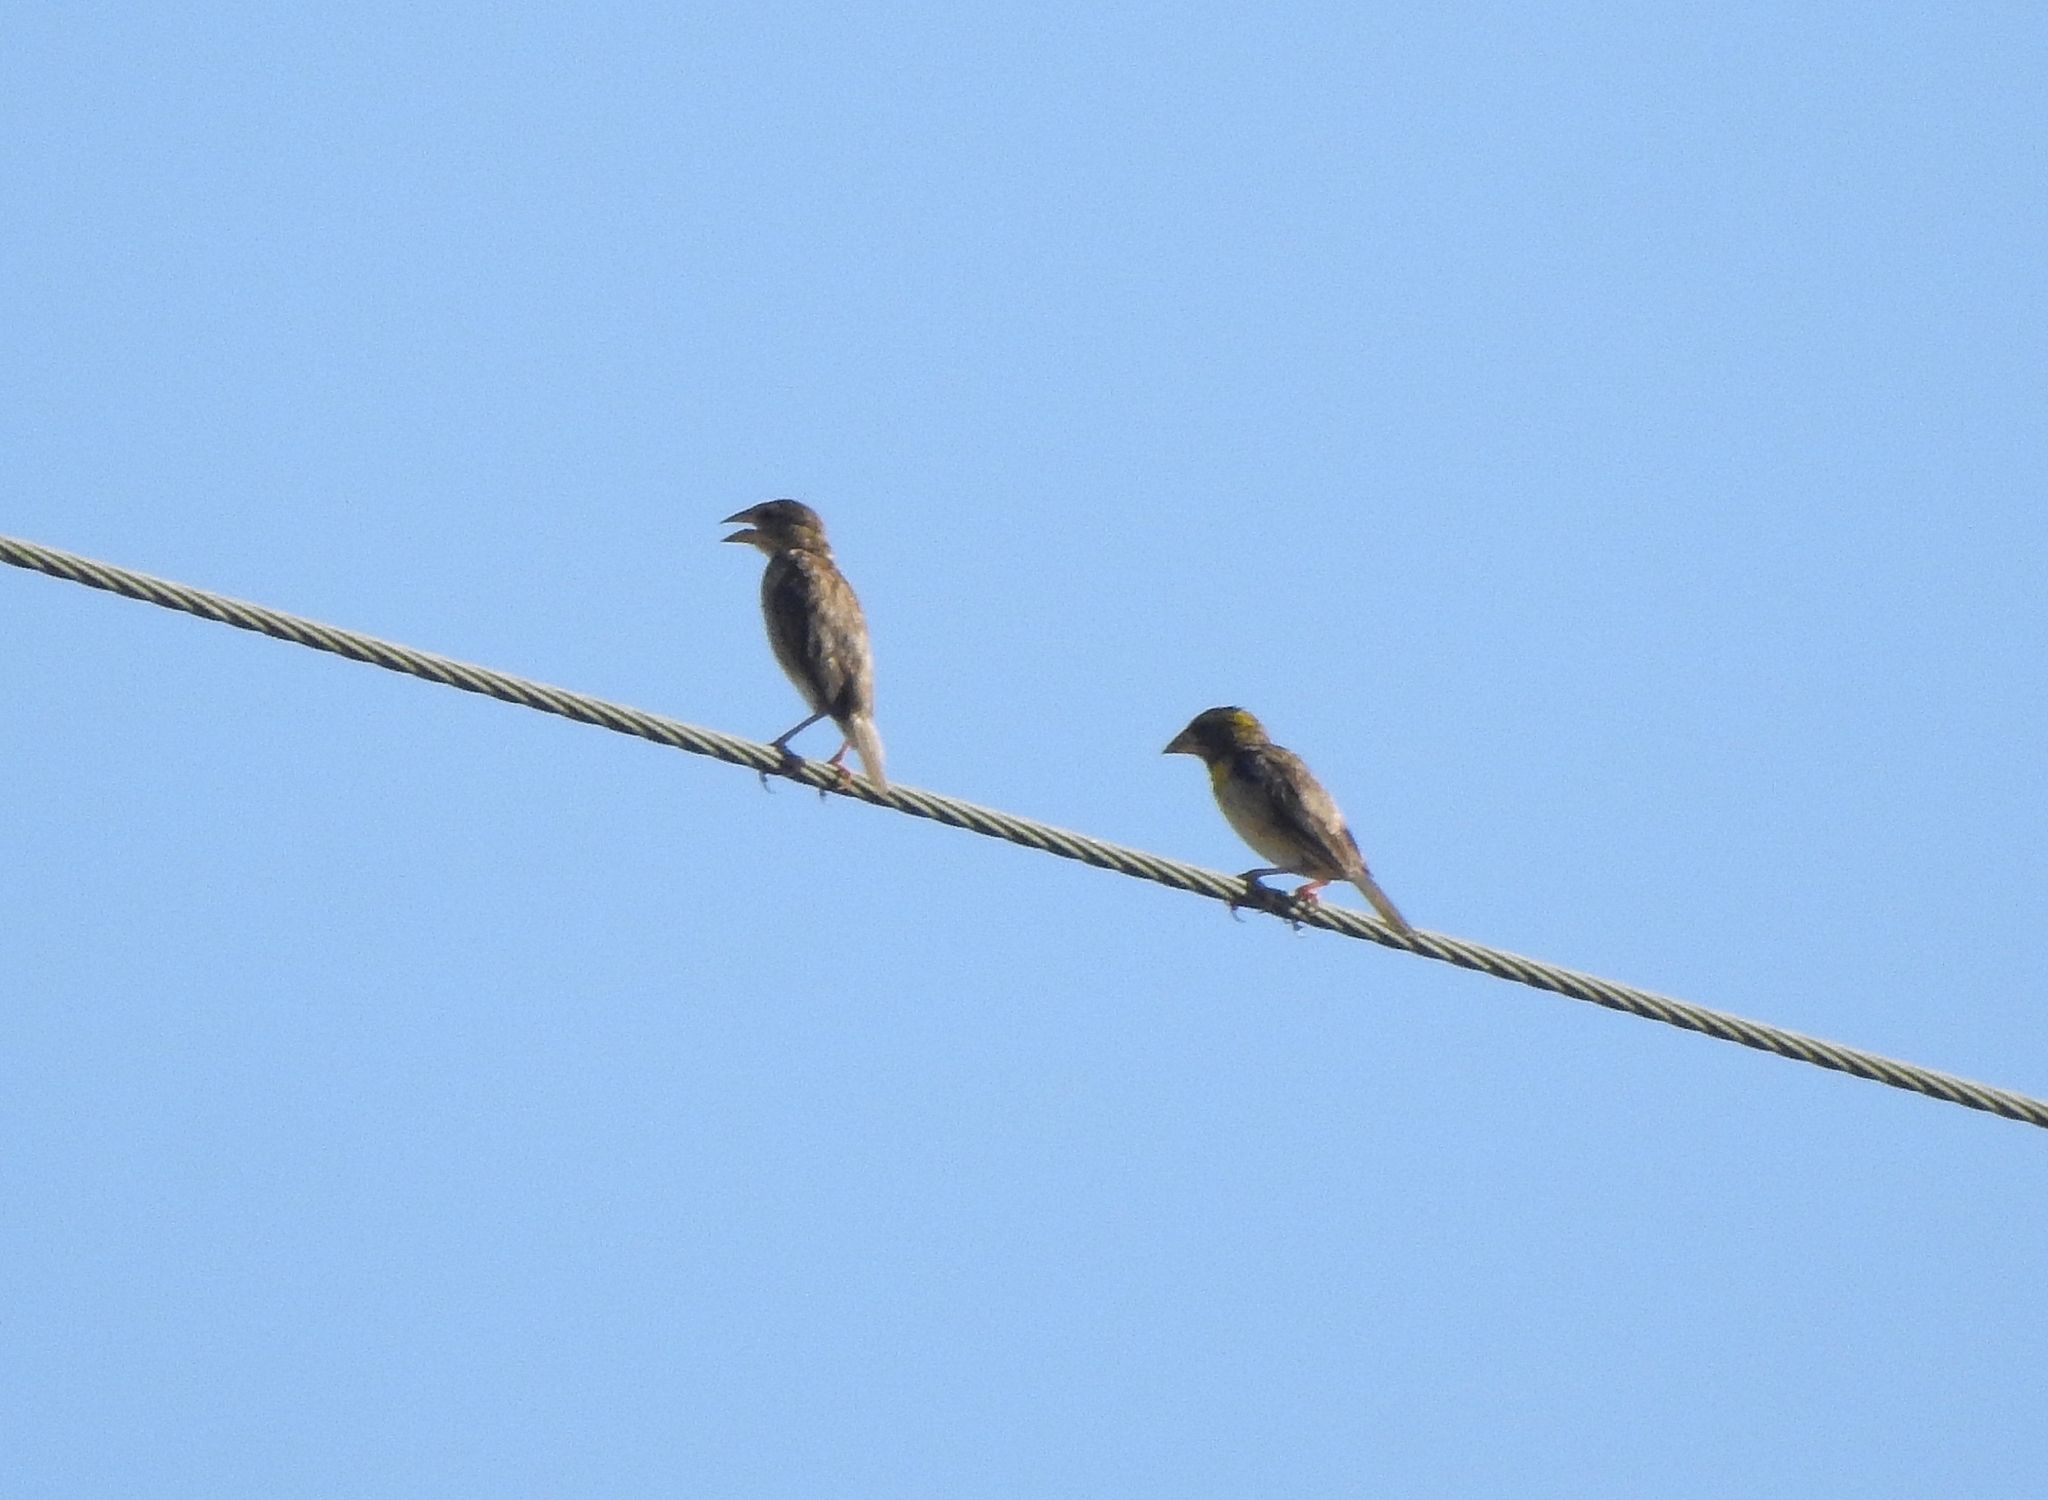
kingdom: Animalia
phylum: Chordata
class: Aves
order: Passeriformes
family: Ploceidae
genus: Ploceus
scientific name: Ploceus philippinus
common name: Baya weaver
